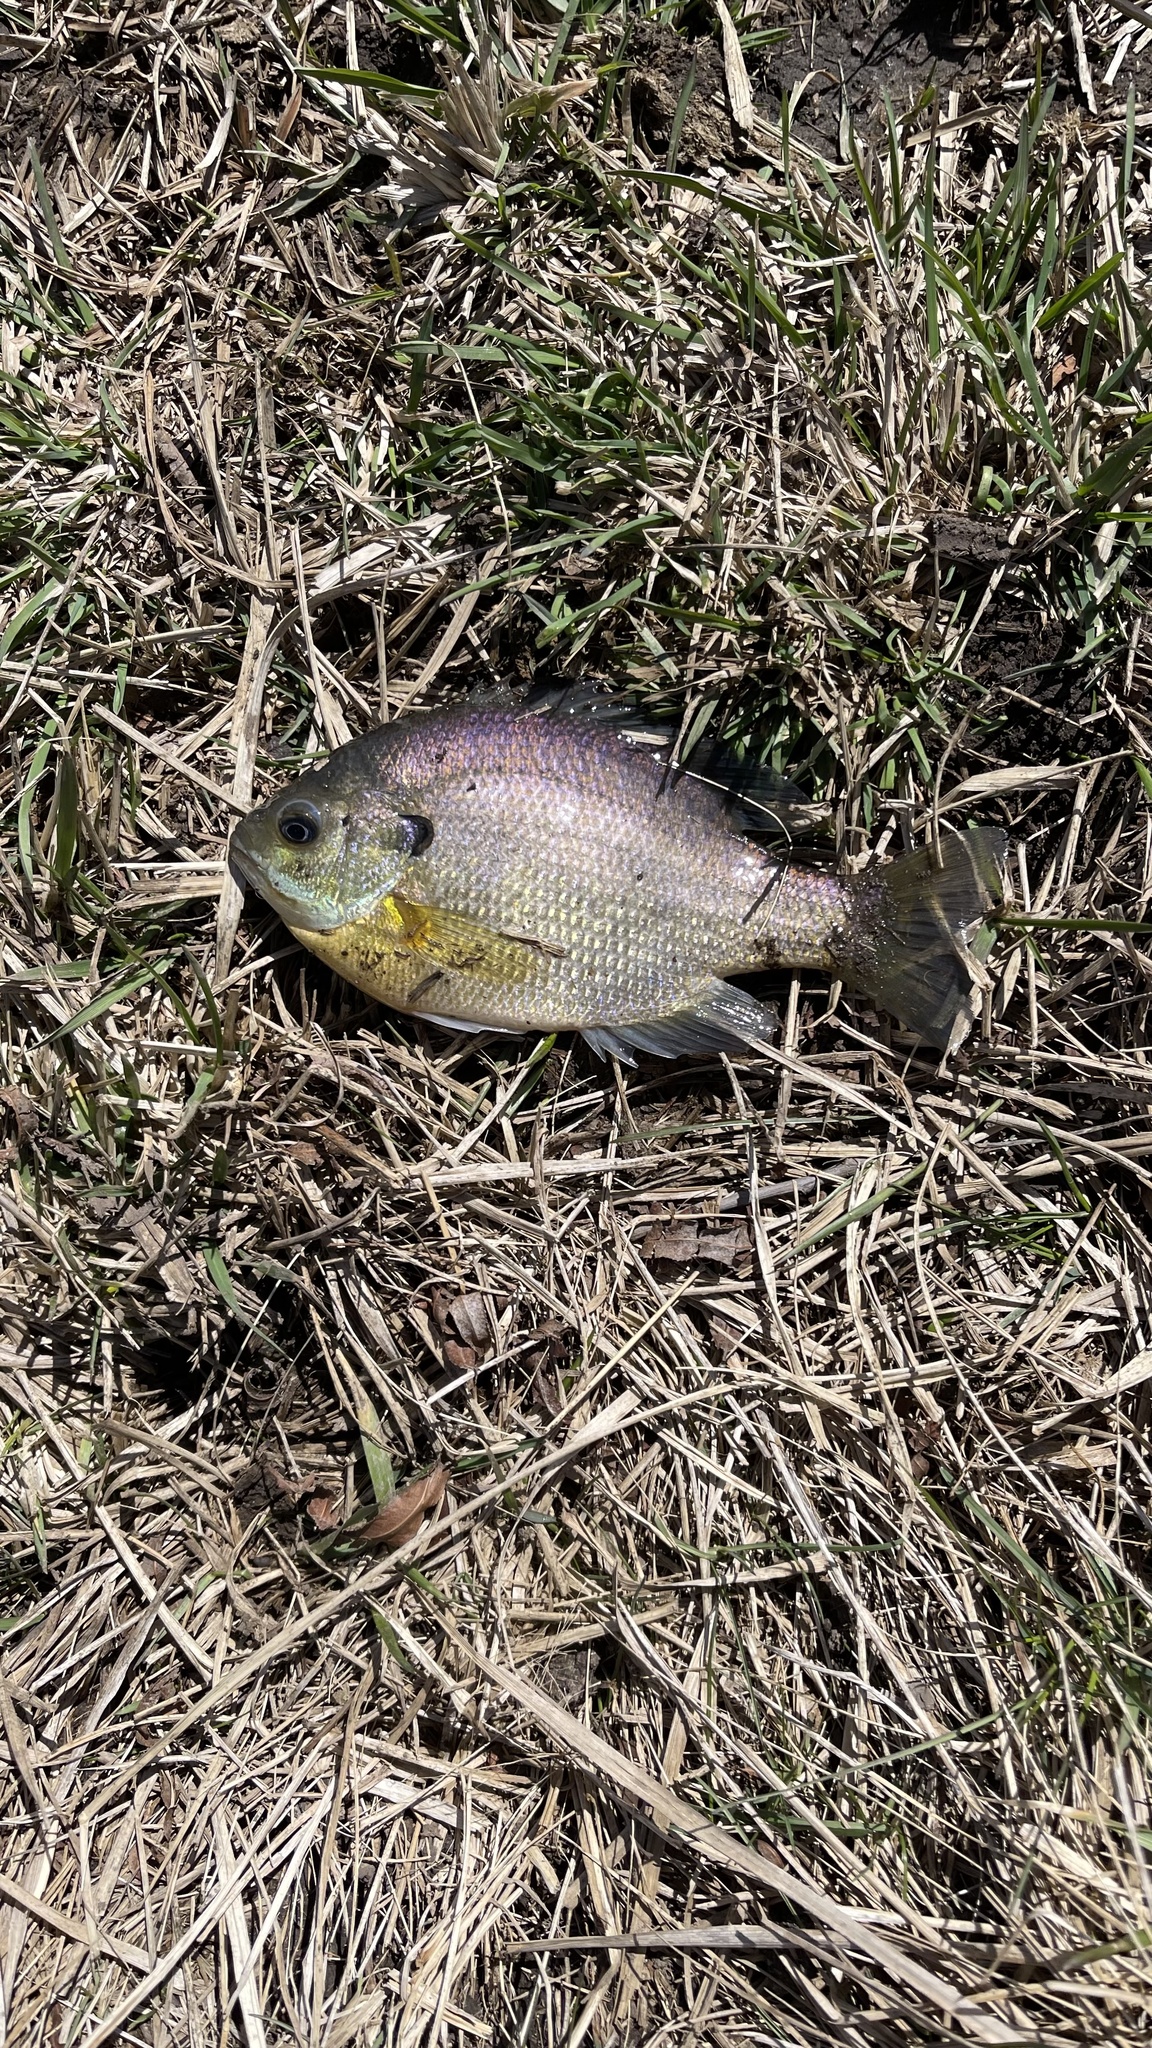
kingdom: Animalia
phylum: Chordata
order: Perciformes
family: Centrarchidae
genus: Lepomis
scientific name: Lepomis macrochirus
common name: Bluegill
